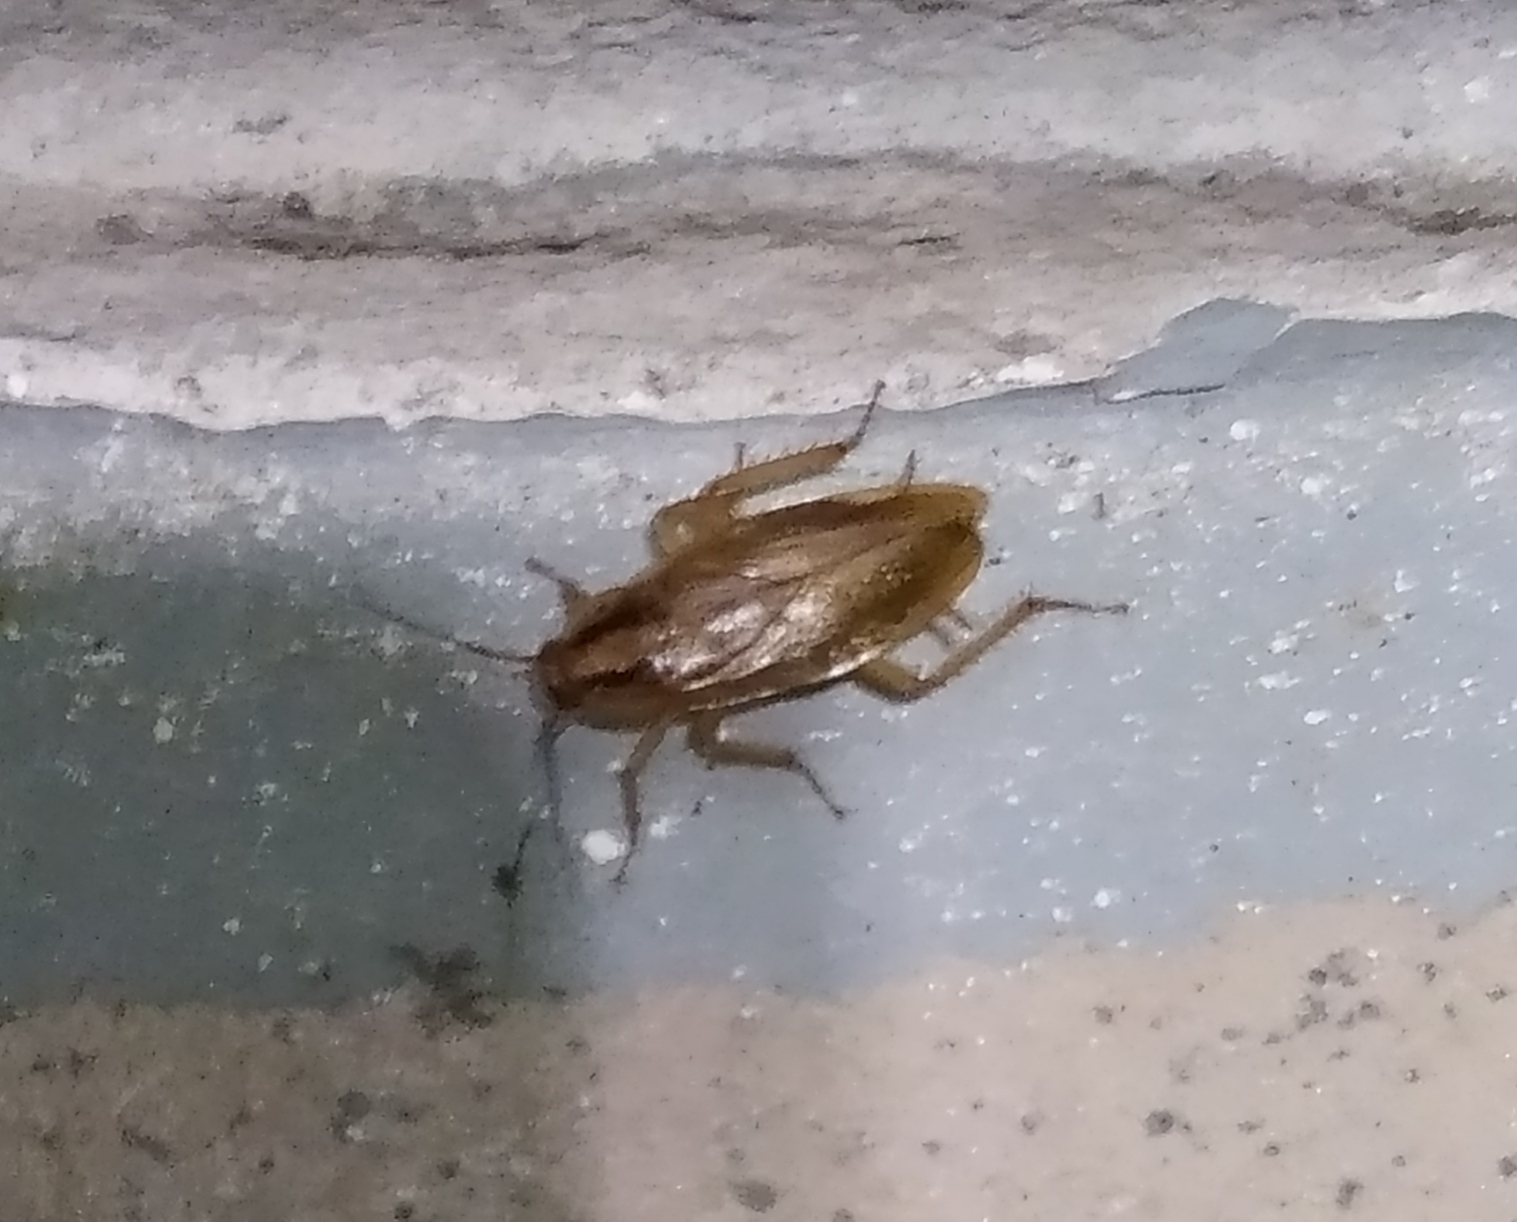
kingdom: Animalia
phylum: Arthropoda
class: Insecta
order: Blattodea
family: Ectobiidae
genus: Blattella
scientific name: Blattella germanica
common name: German cockroach
